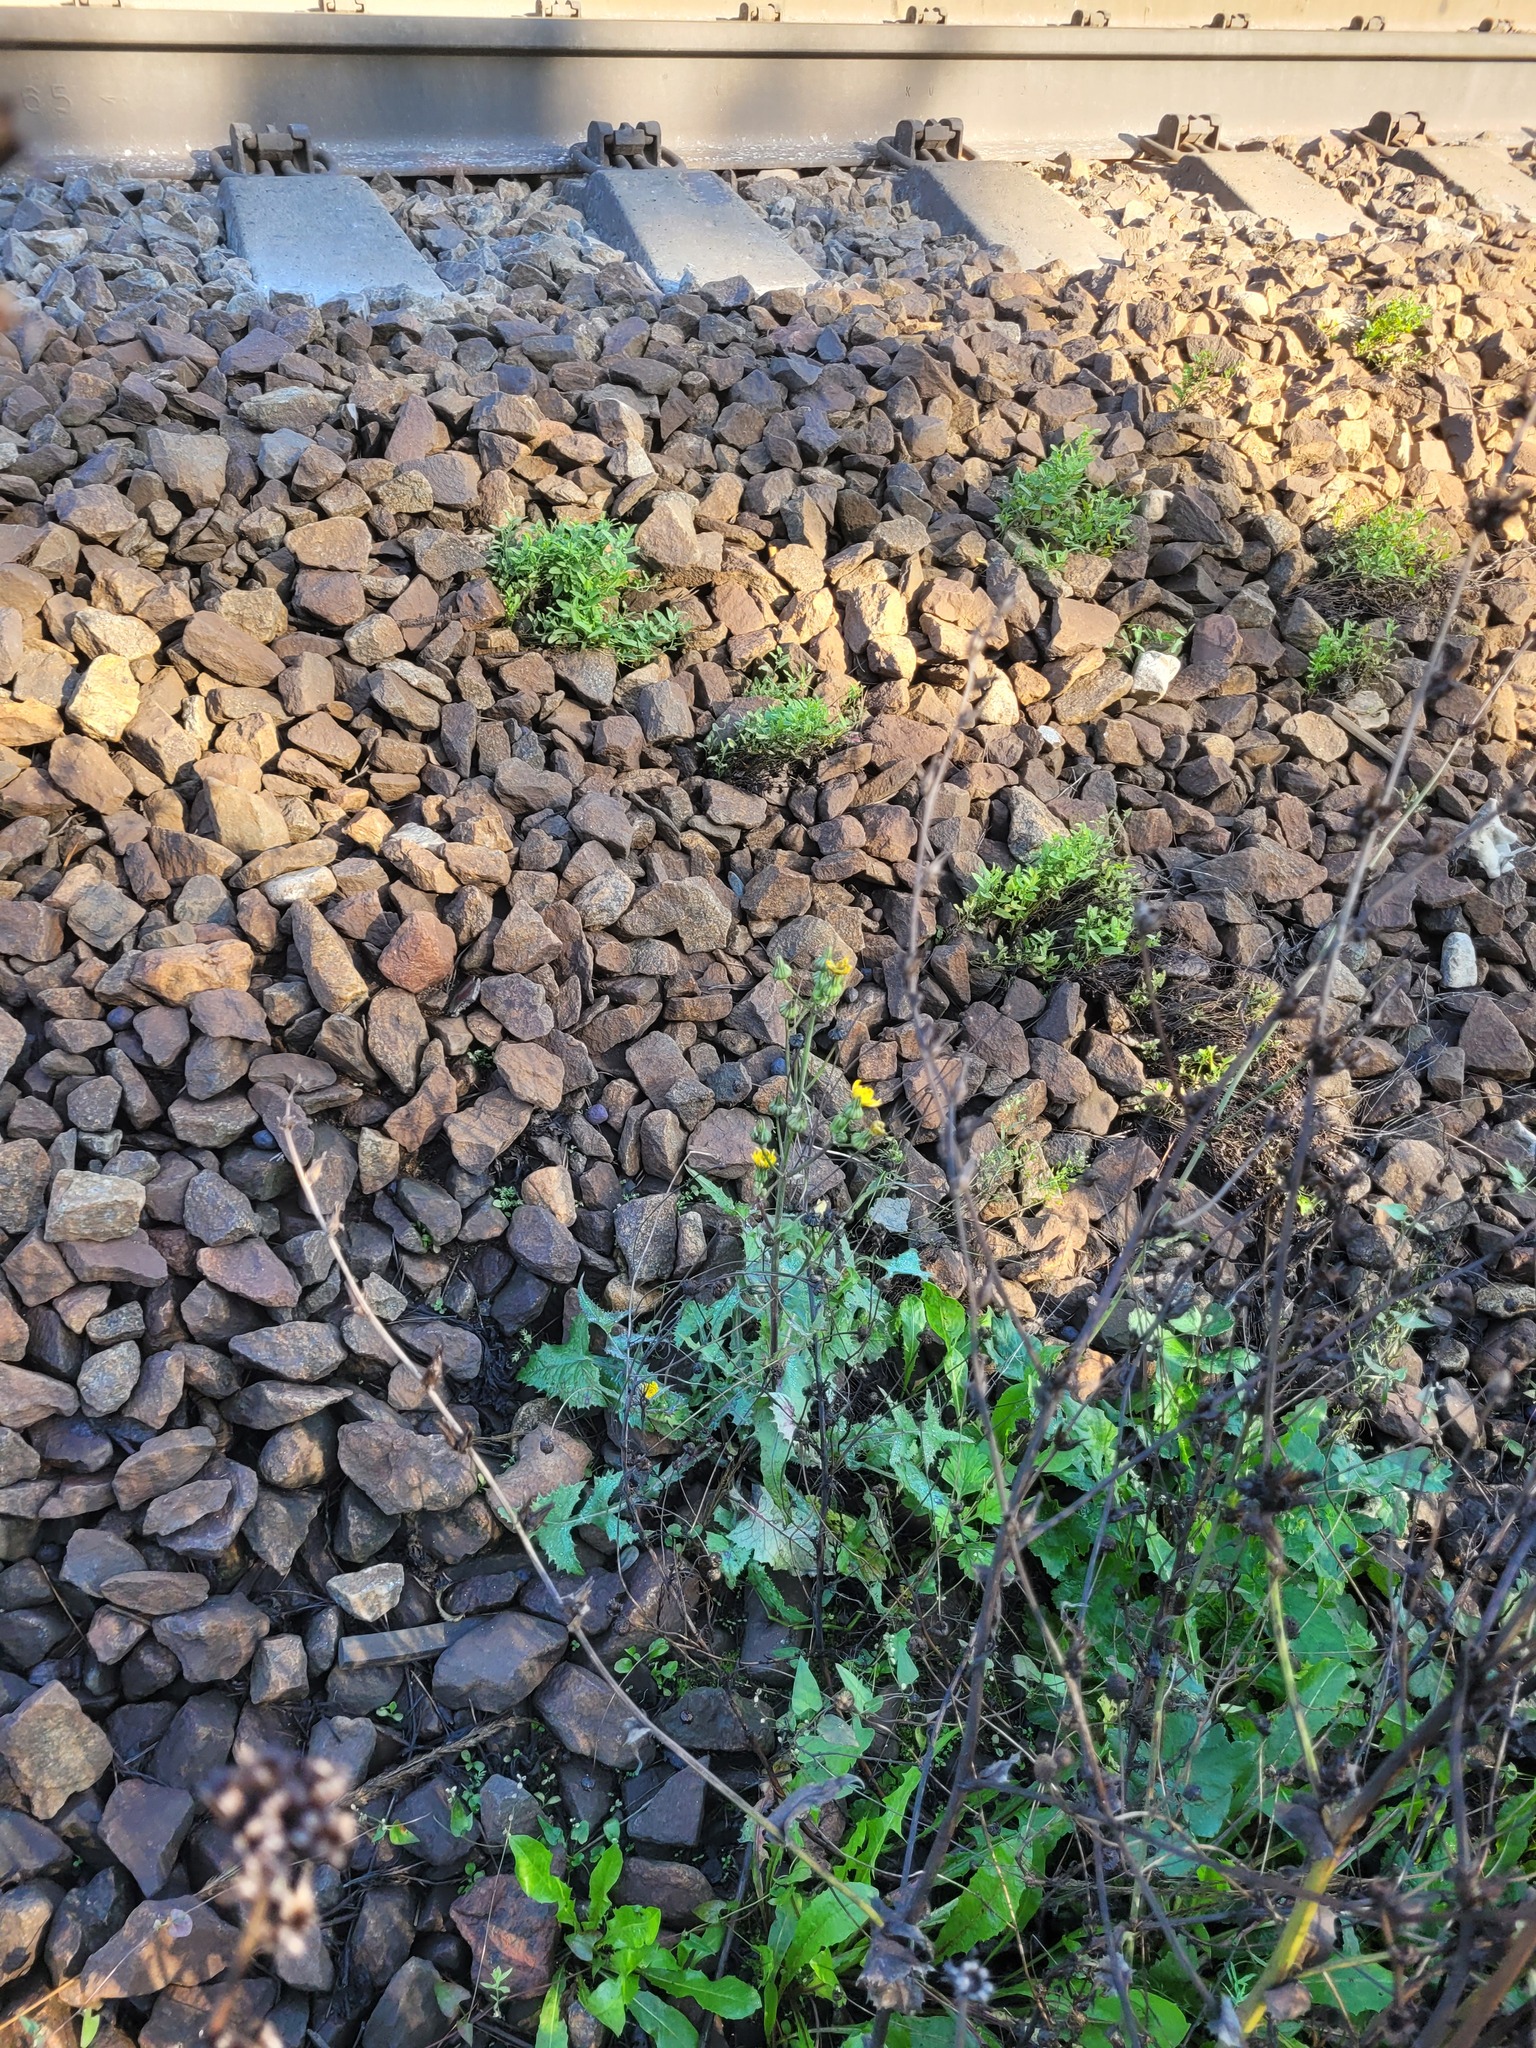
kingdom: Plantae
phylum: Tracheophyta
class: Magnoliopsida
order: Asterales
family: Asteraceae
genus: Sonchus
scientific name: Sonchus oleraceus
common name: Common sowthistle
